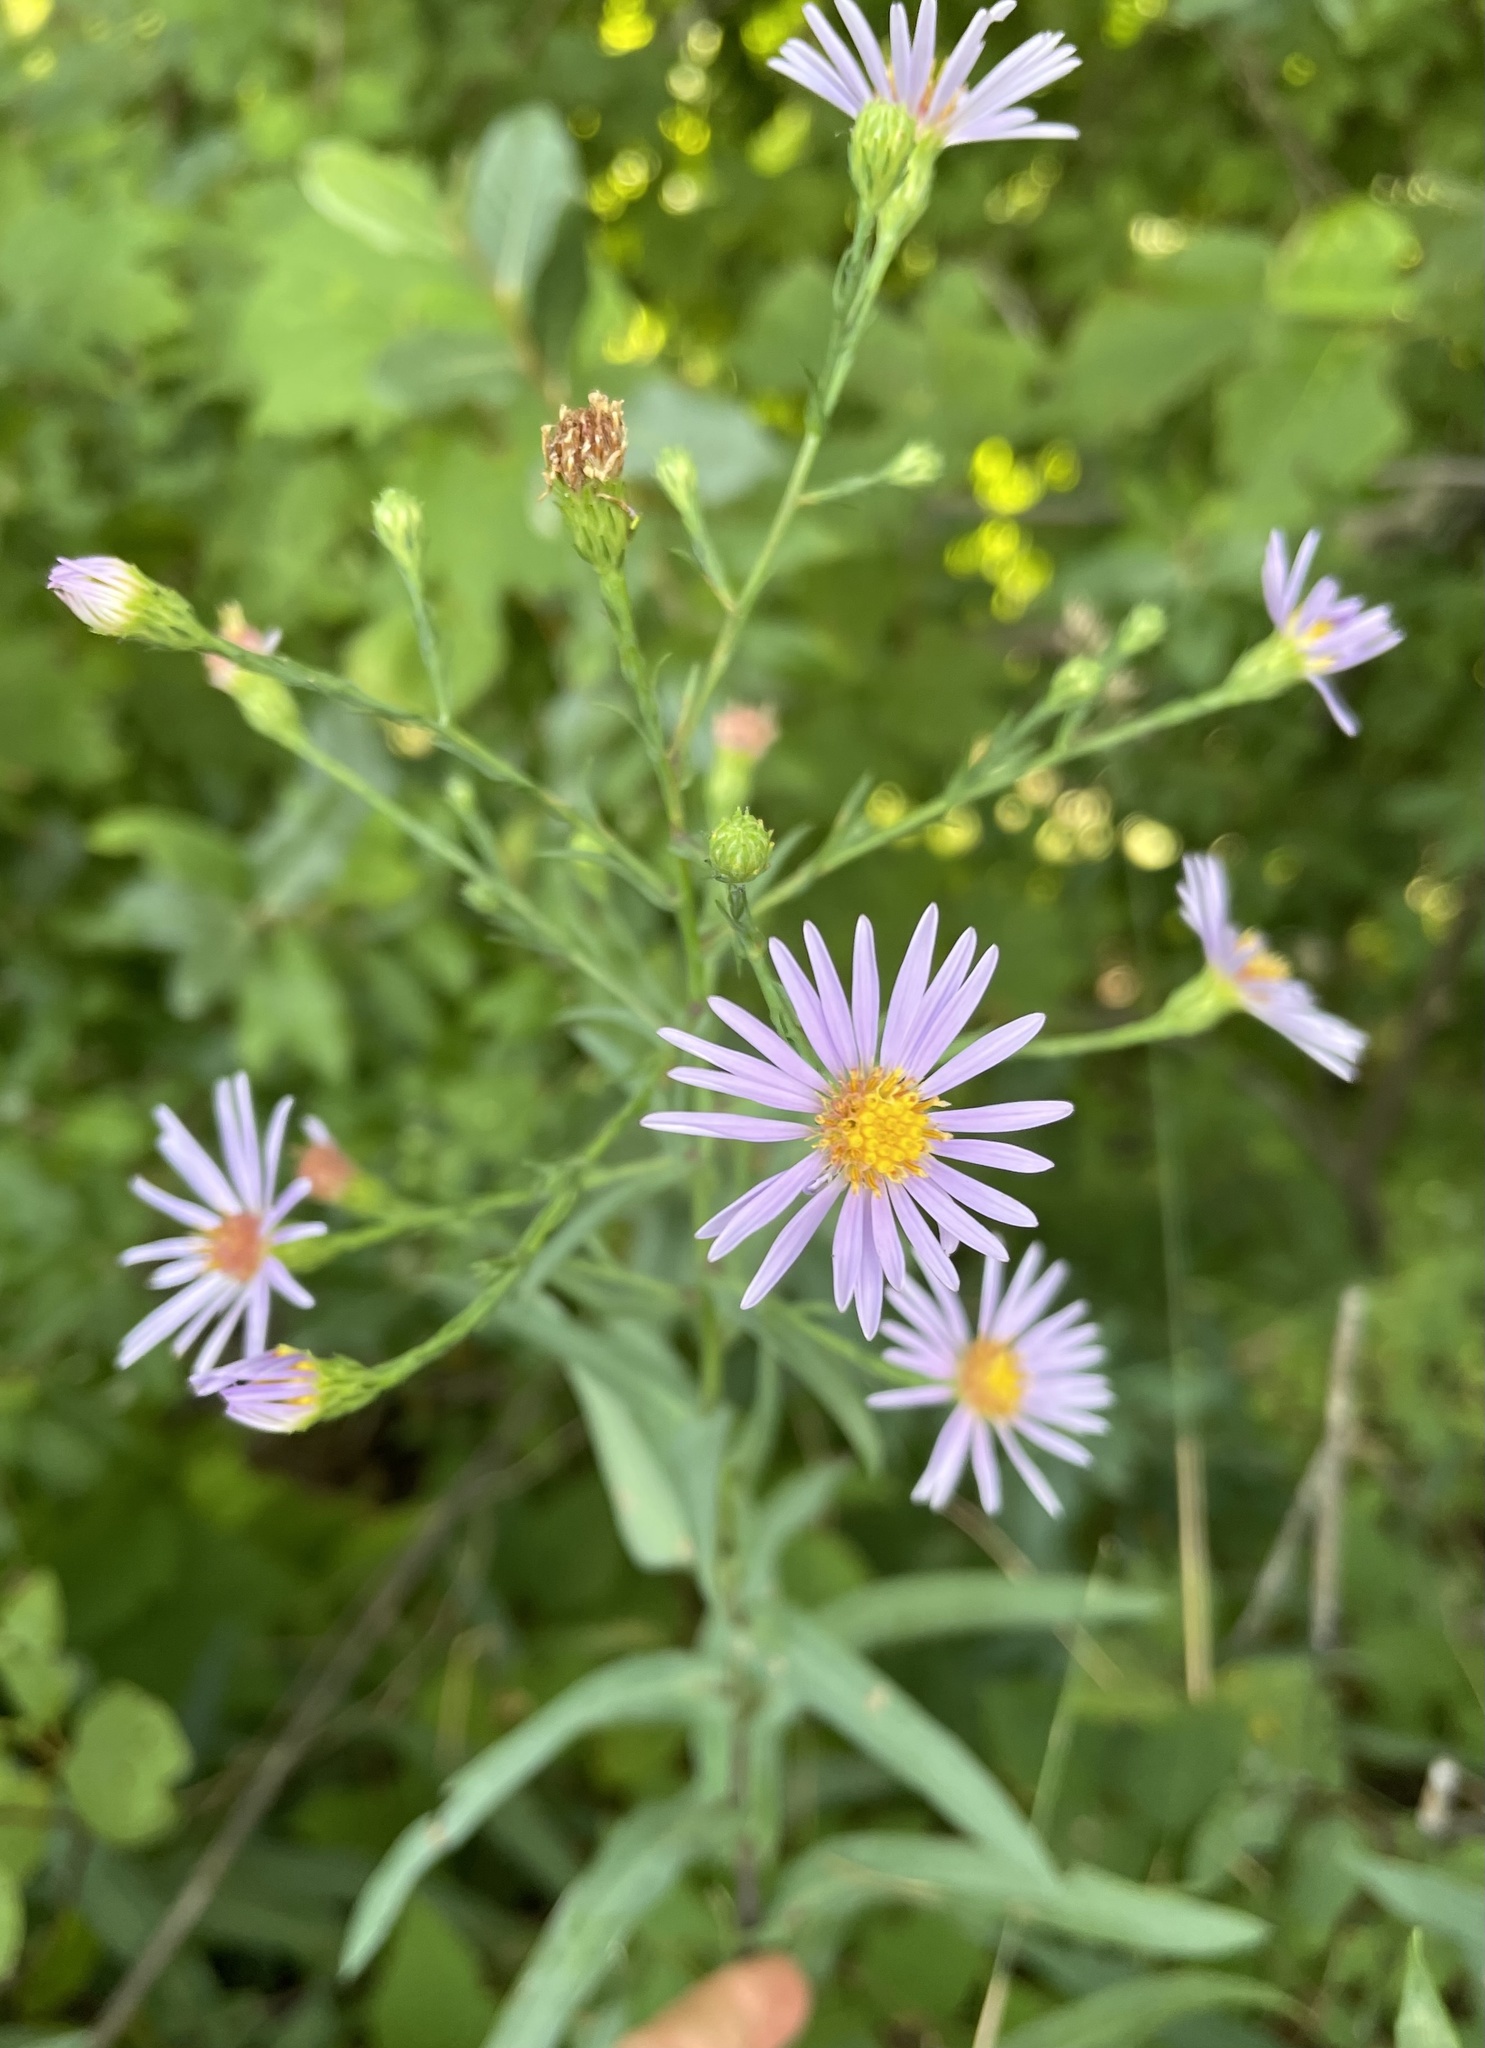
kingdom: Plantae
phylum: Tracheophyta
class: Magnoliopsida
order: Asterales
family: Asteraceae
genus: Symphyotrichum
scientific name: Symphyotrichum laeve
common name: Glaucous aster
